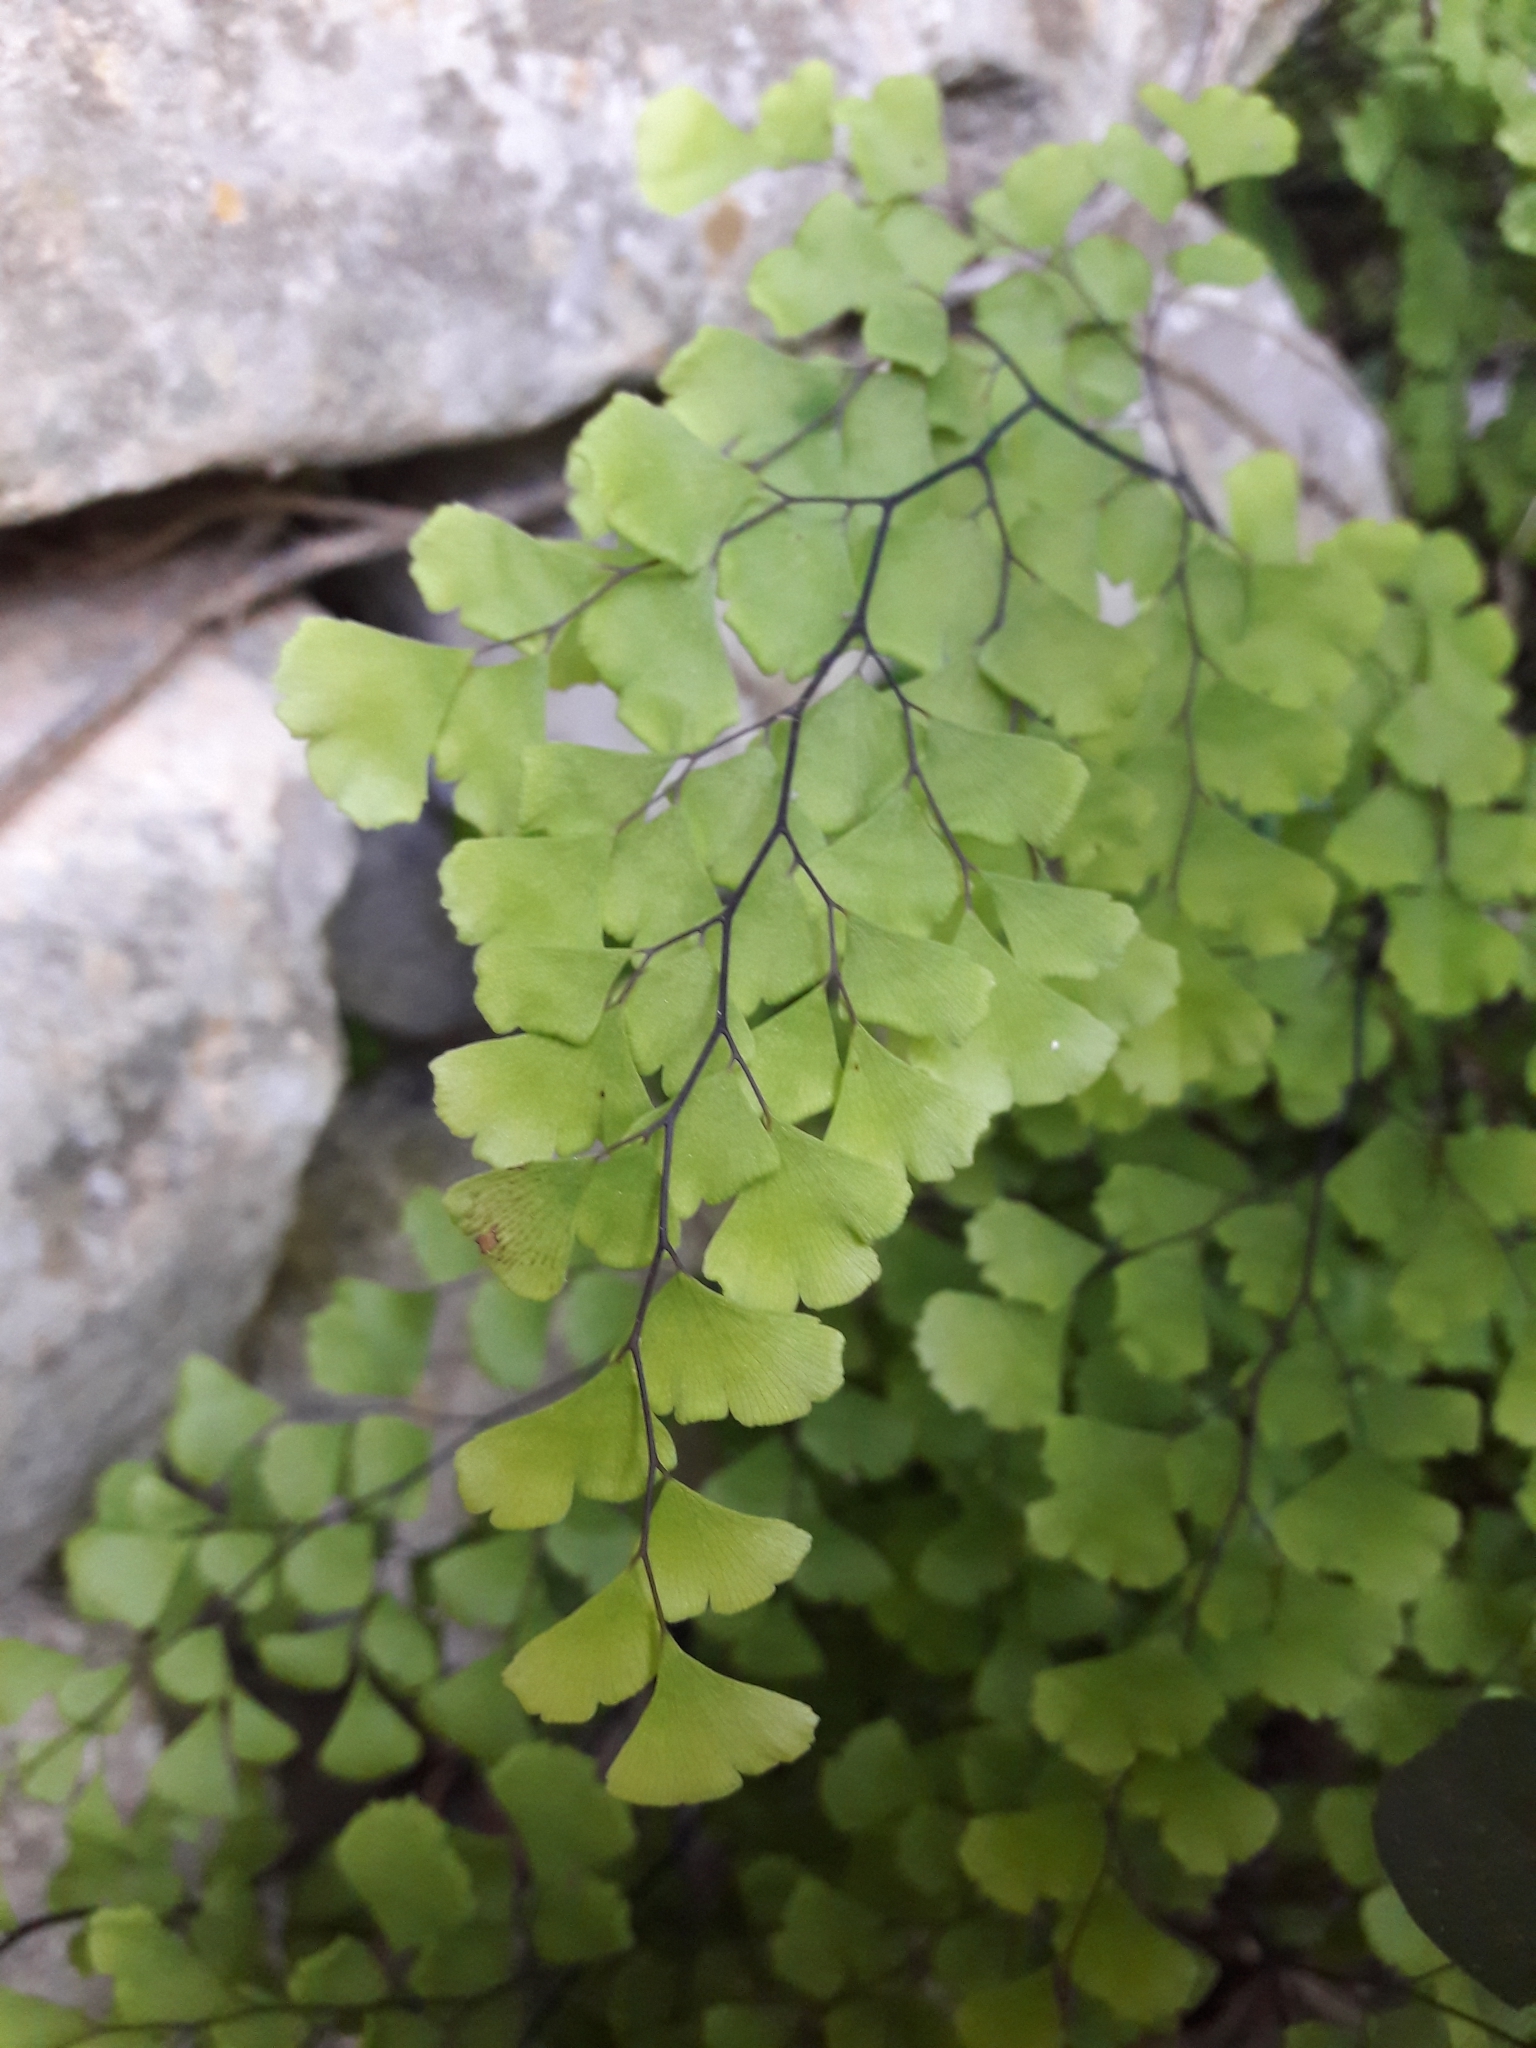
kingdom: Plantae
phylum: Tracheophyta
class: Polypodiopsida
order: Polypodiales
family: Pteridaceae
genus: Adiantum
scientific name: Adiantum capillus-veneris
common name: Maidenhair fern
